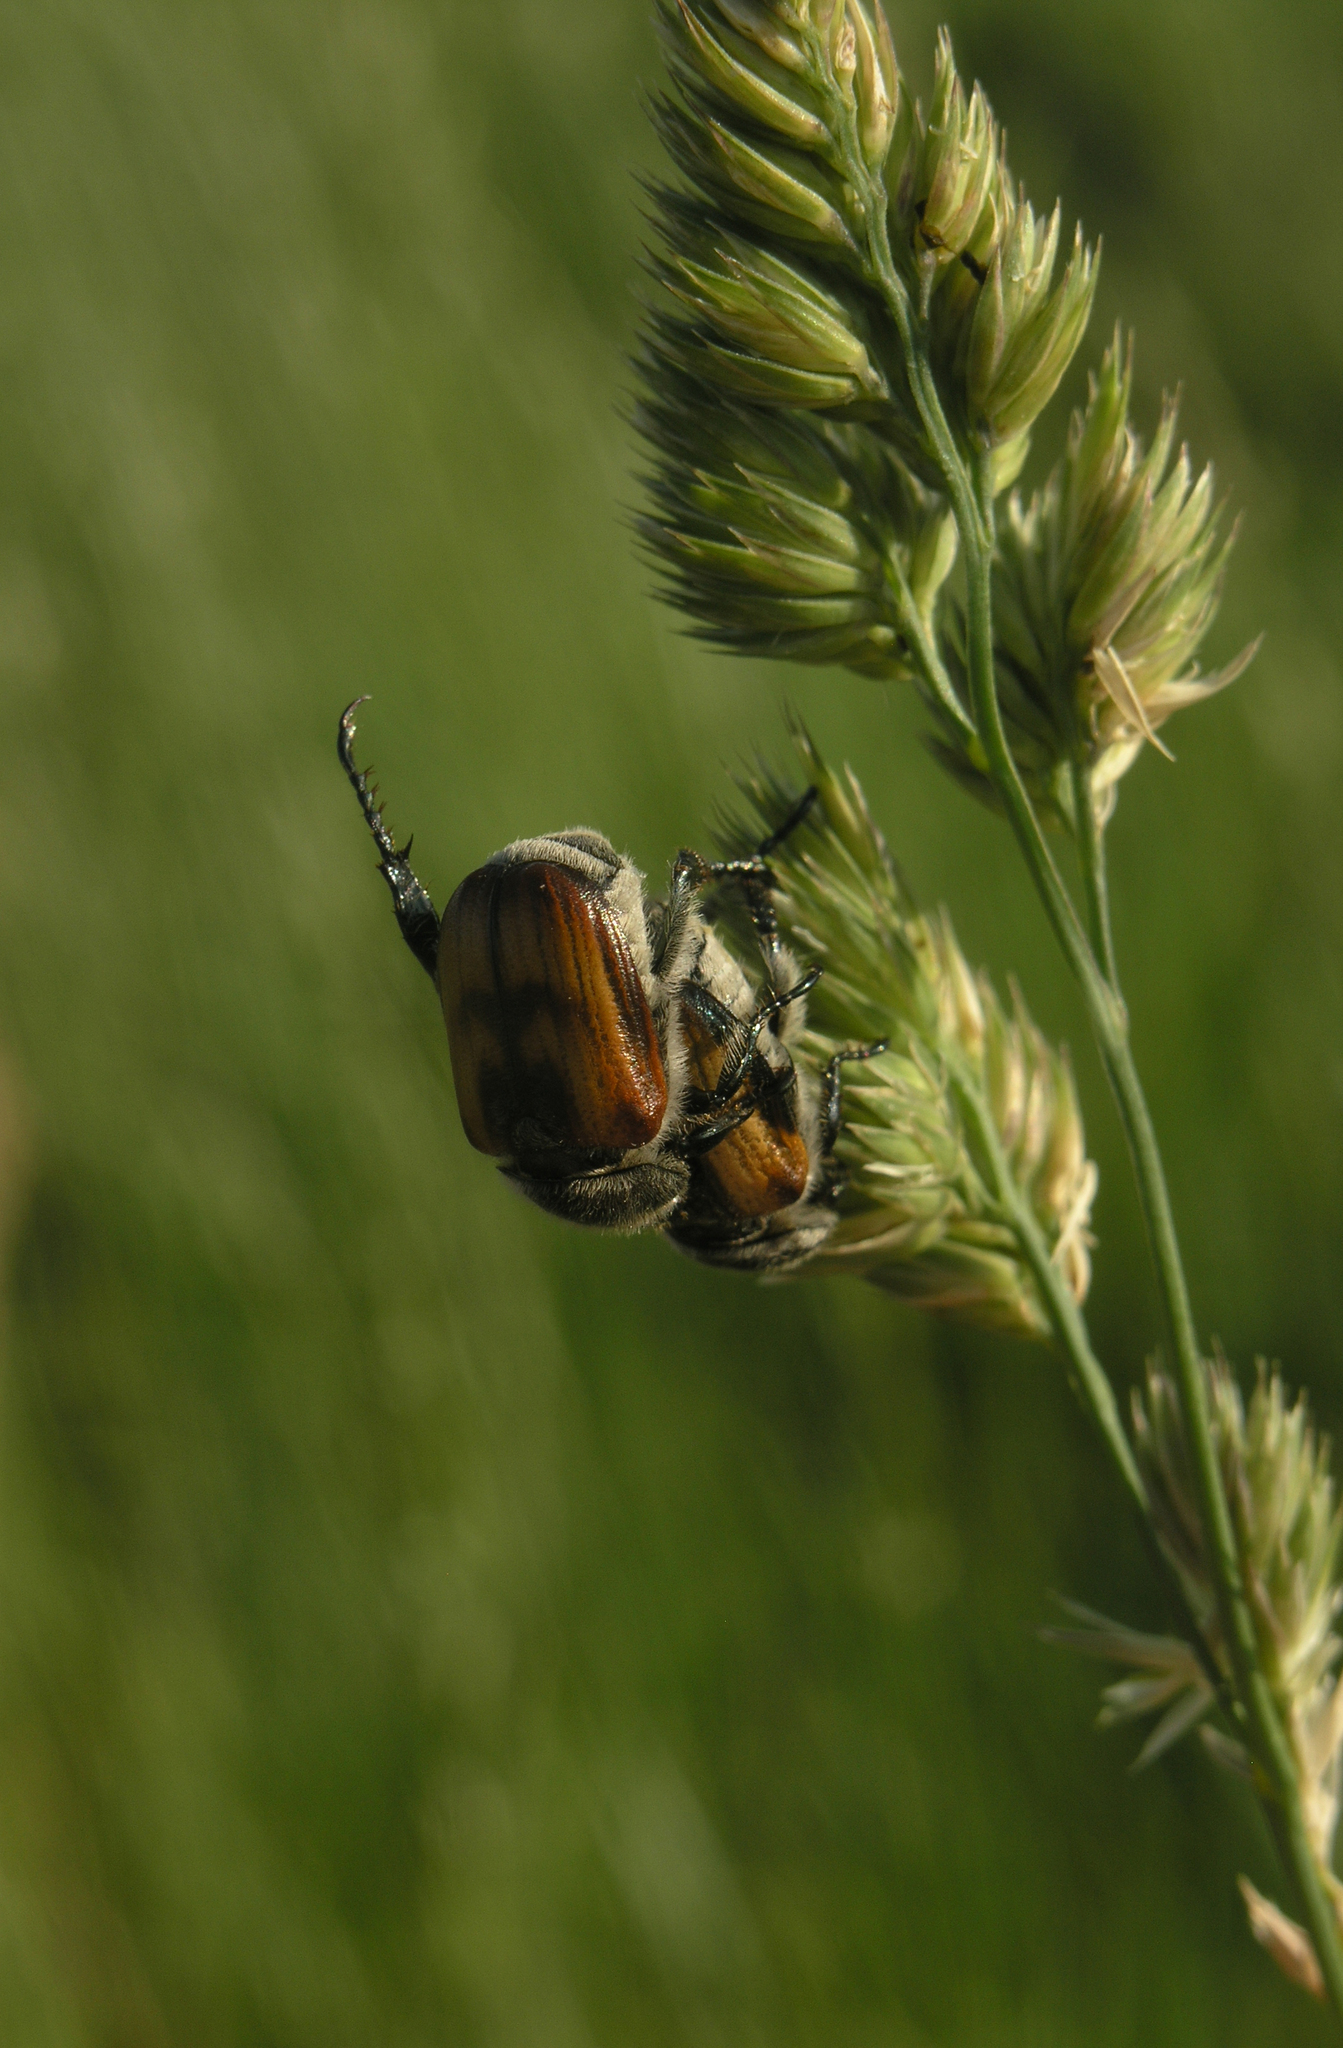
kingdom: Animalia
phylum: Arthropoda
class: Insecta
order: Coleoptera
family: Scarabaeidae
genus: Anisoplia
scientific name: Anisoplia agricola
